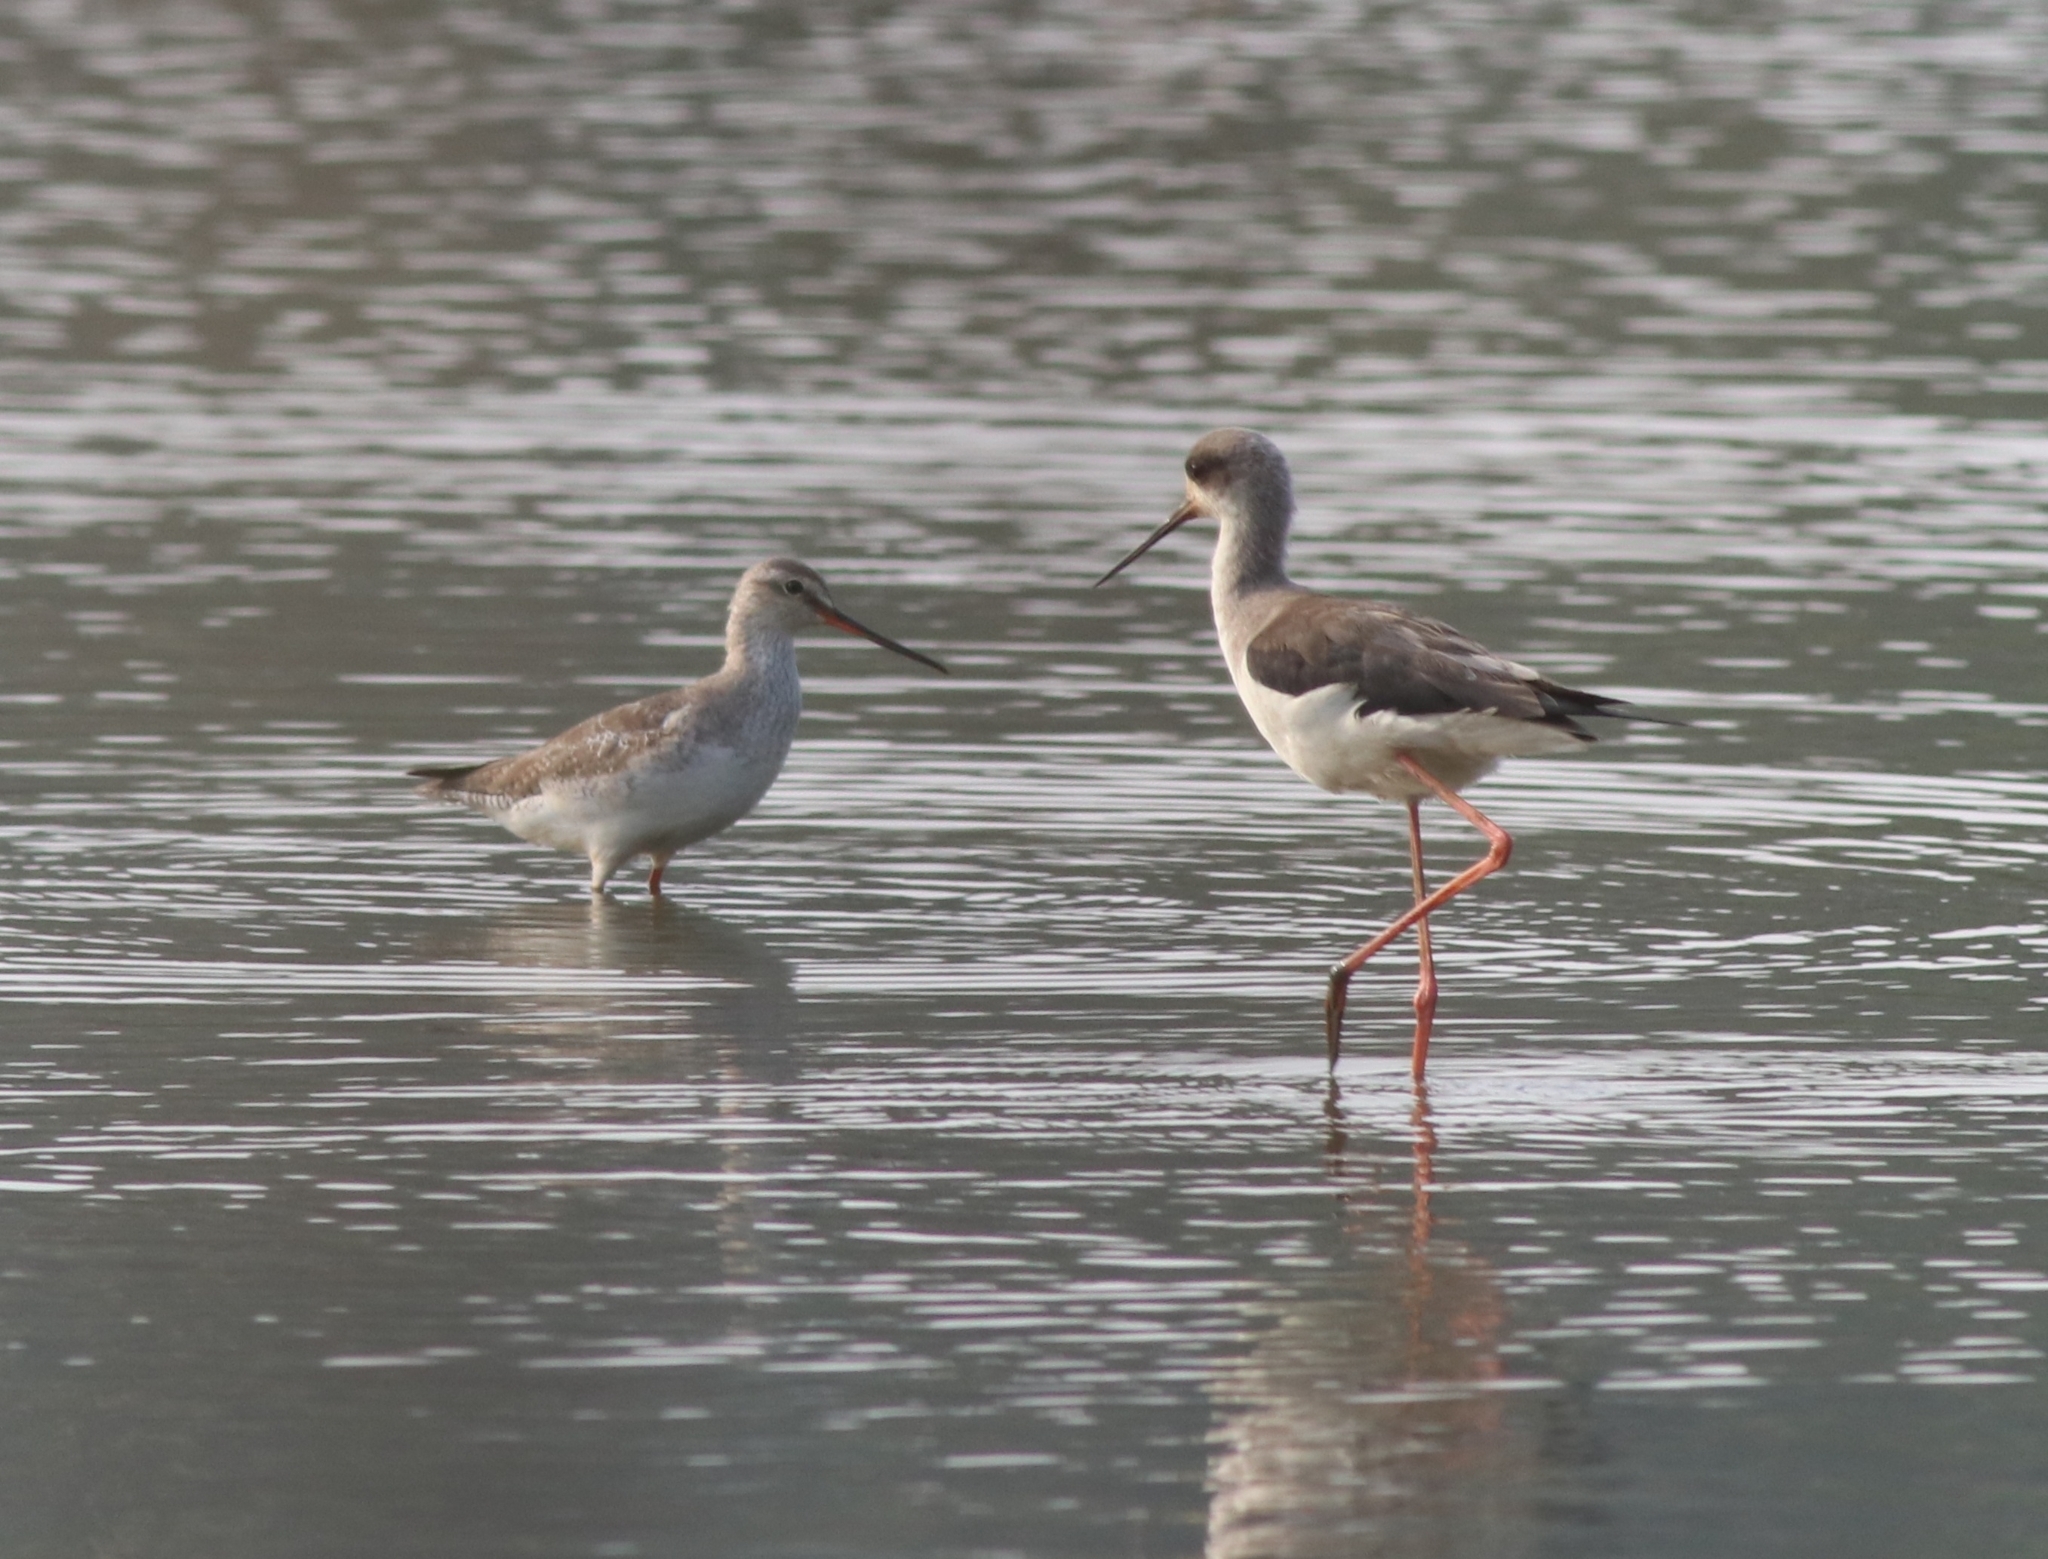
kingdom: Animalia
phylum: Chordata
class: Aves
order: Charadriiformes
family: Scolopacidae
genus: Tringa
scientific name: Tringa erythropus
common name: Spotted redshank
